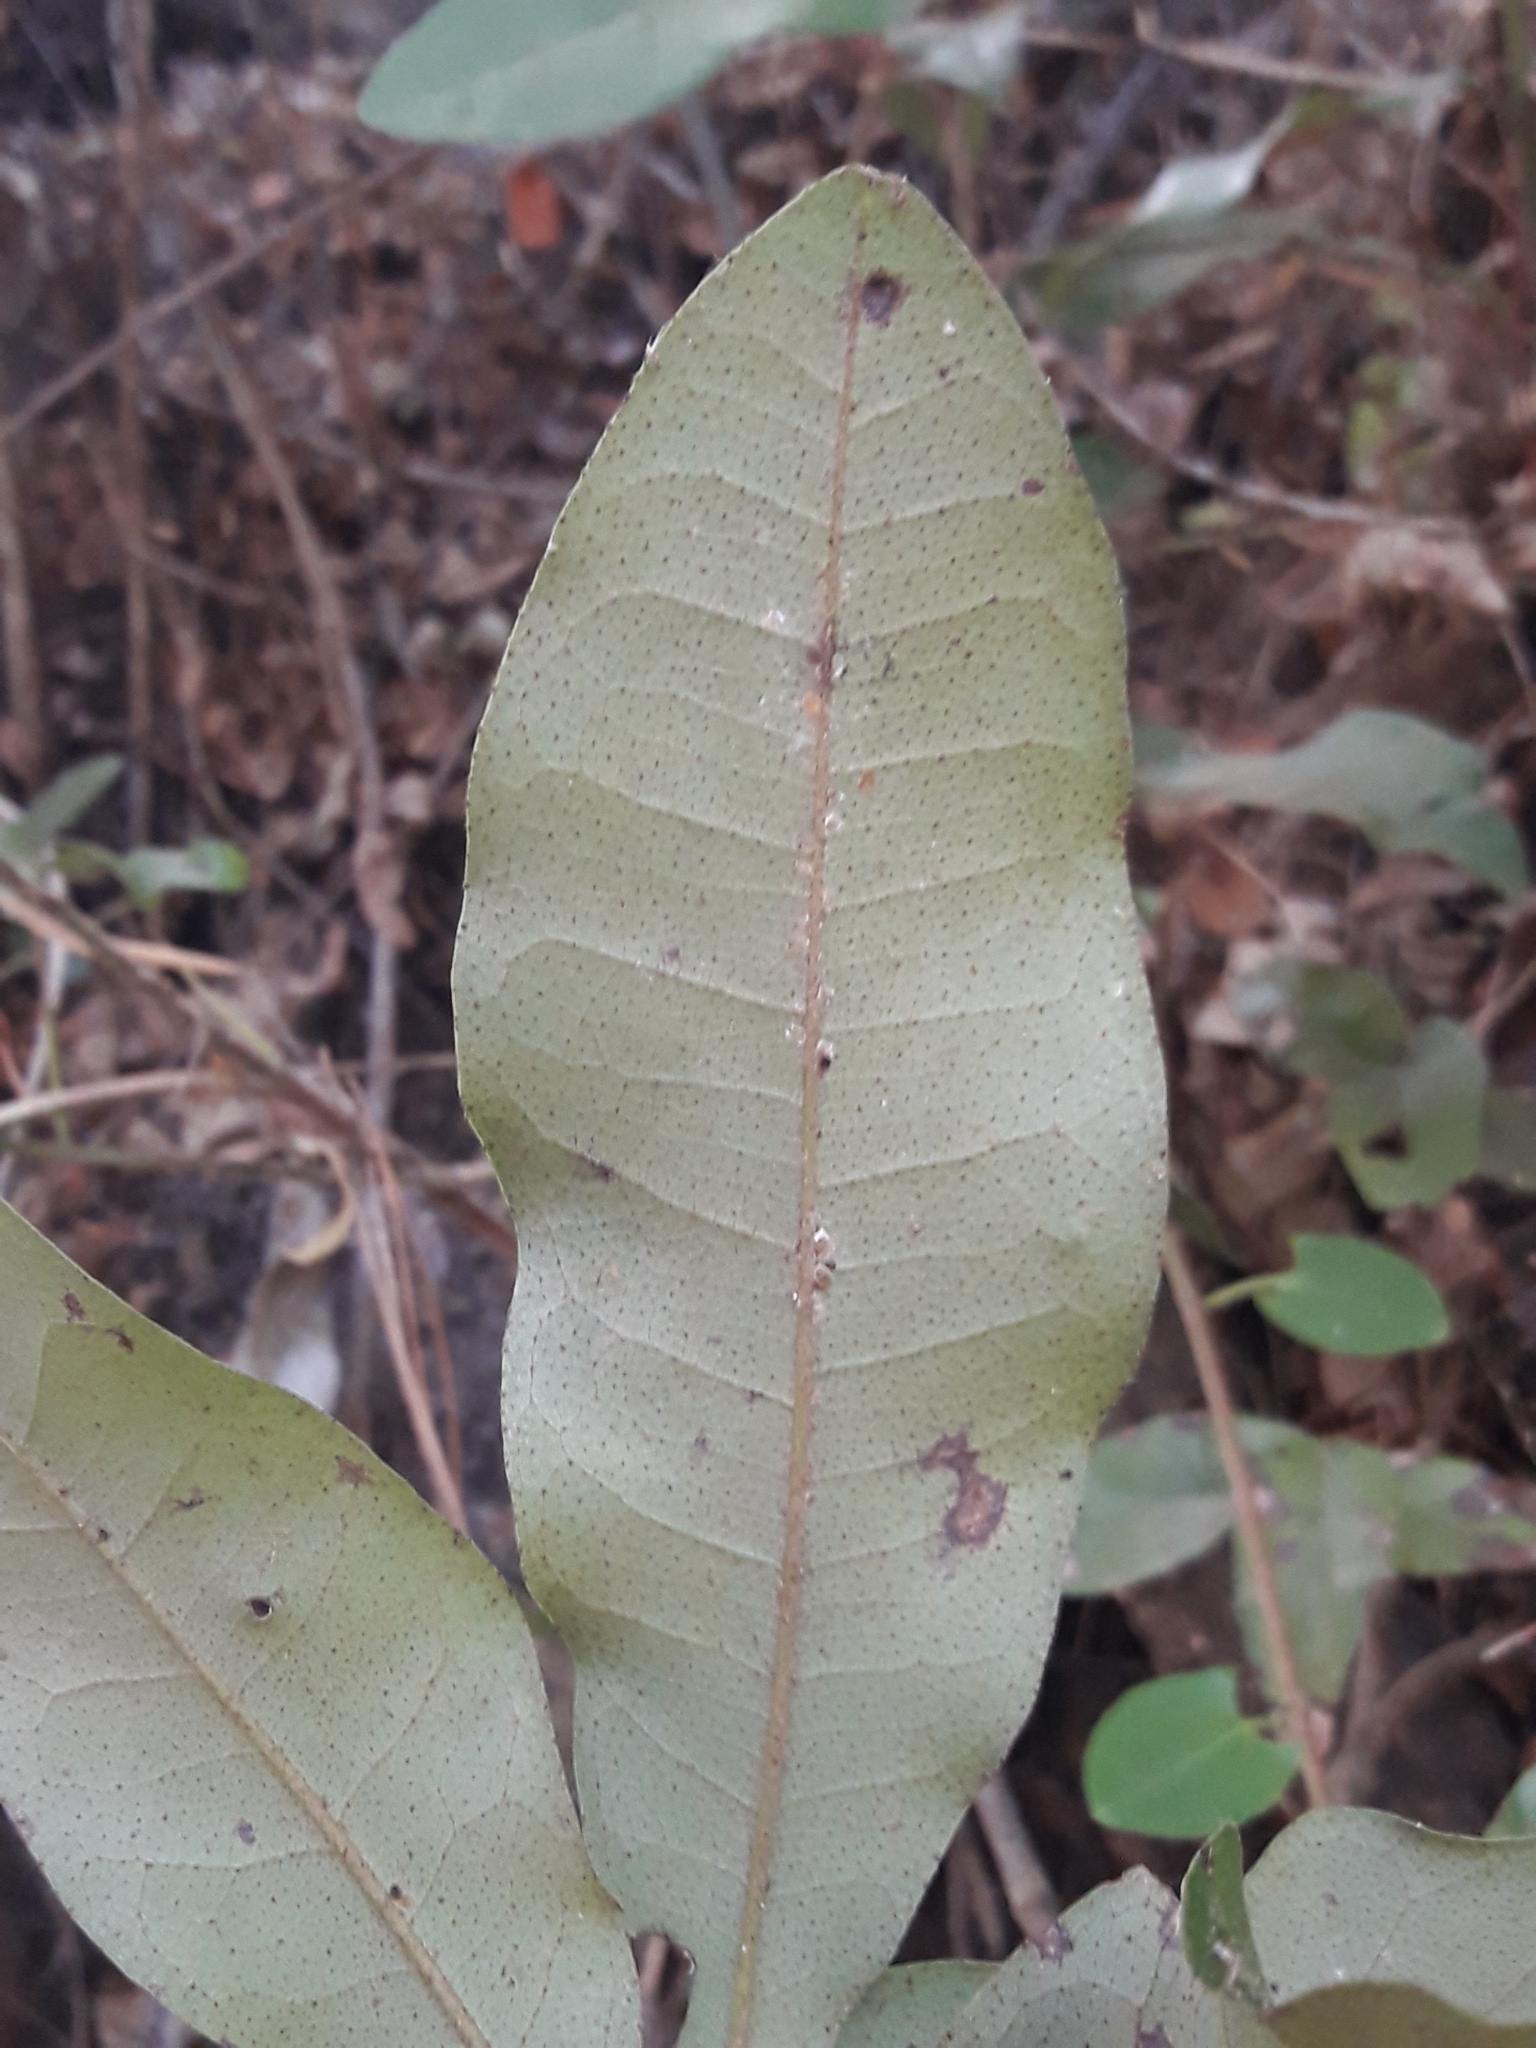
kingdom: Plantae
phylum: Tracheophyta
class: Magnoliopsida
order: Berberidopsidales
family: Aextoxicaceae
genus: Aextoxicon
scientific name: Aextoxicon punctatum
